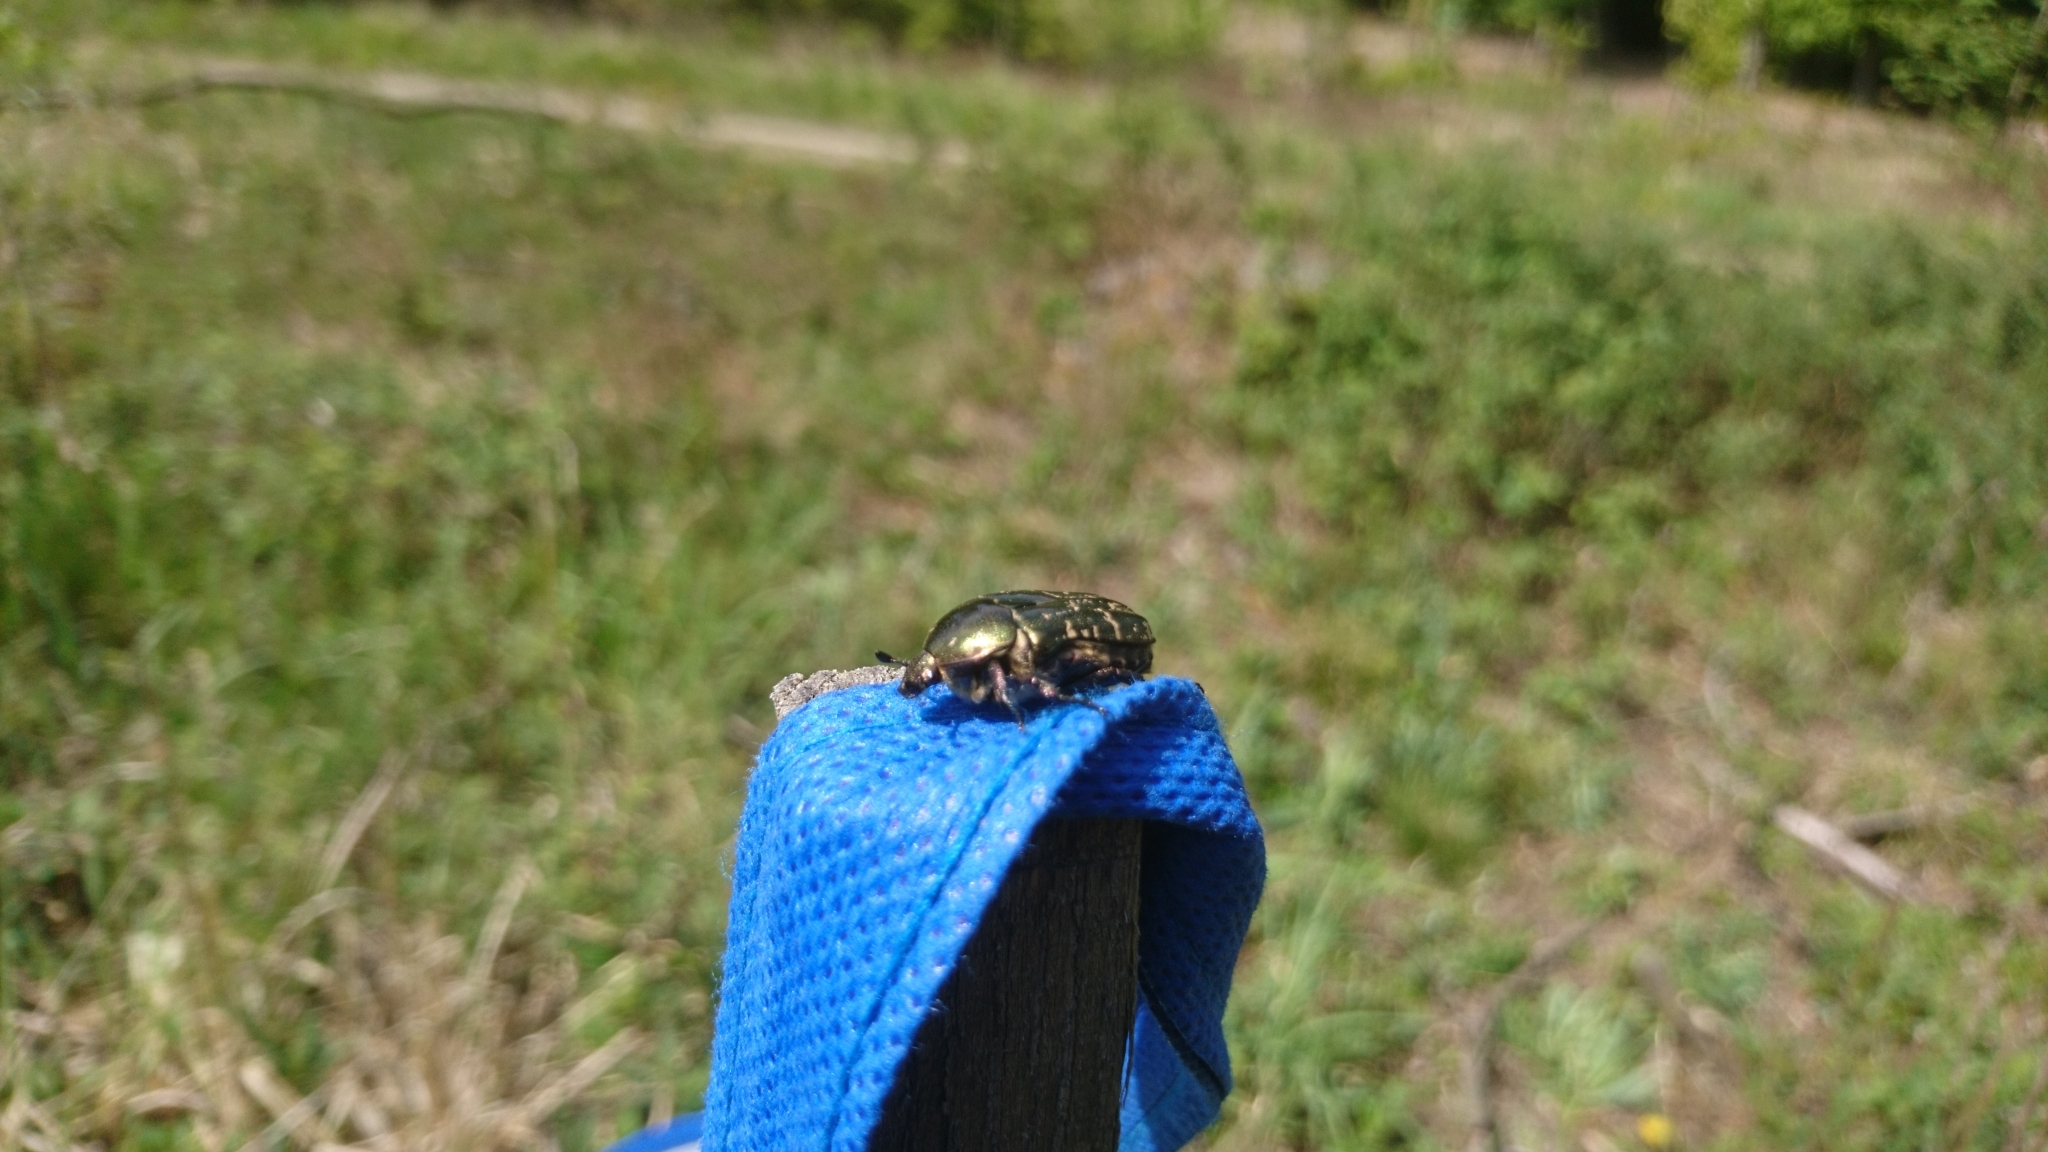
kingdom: Animalia
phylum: Arthropoda
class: Insecta
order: Coleoptera
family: Scarabaeidae
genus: Protaetia
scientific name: Protaetia cuprea
